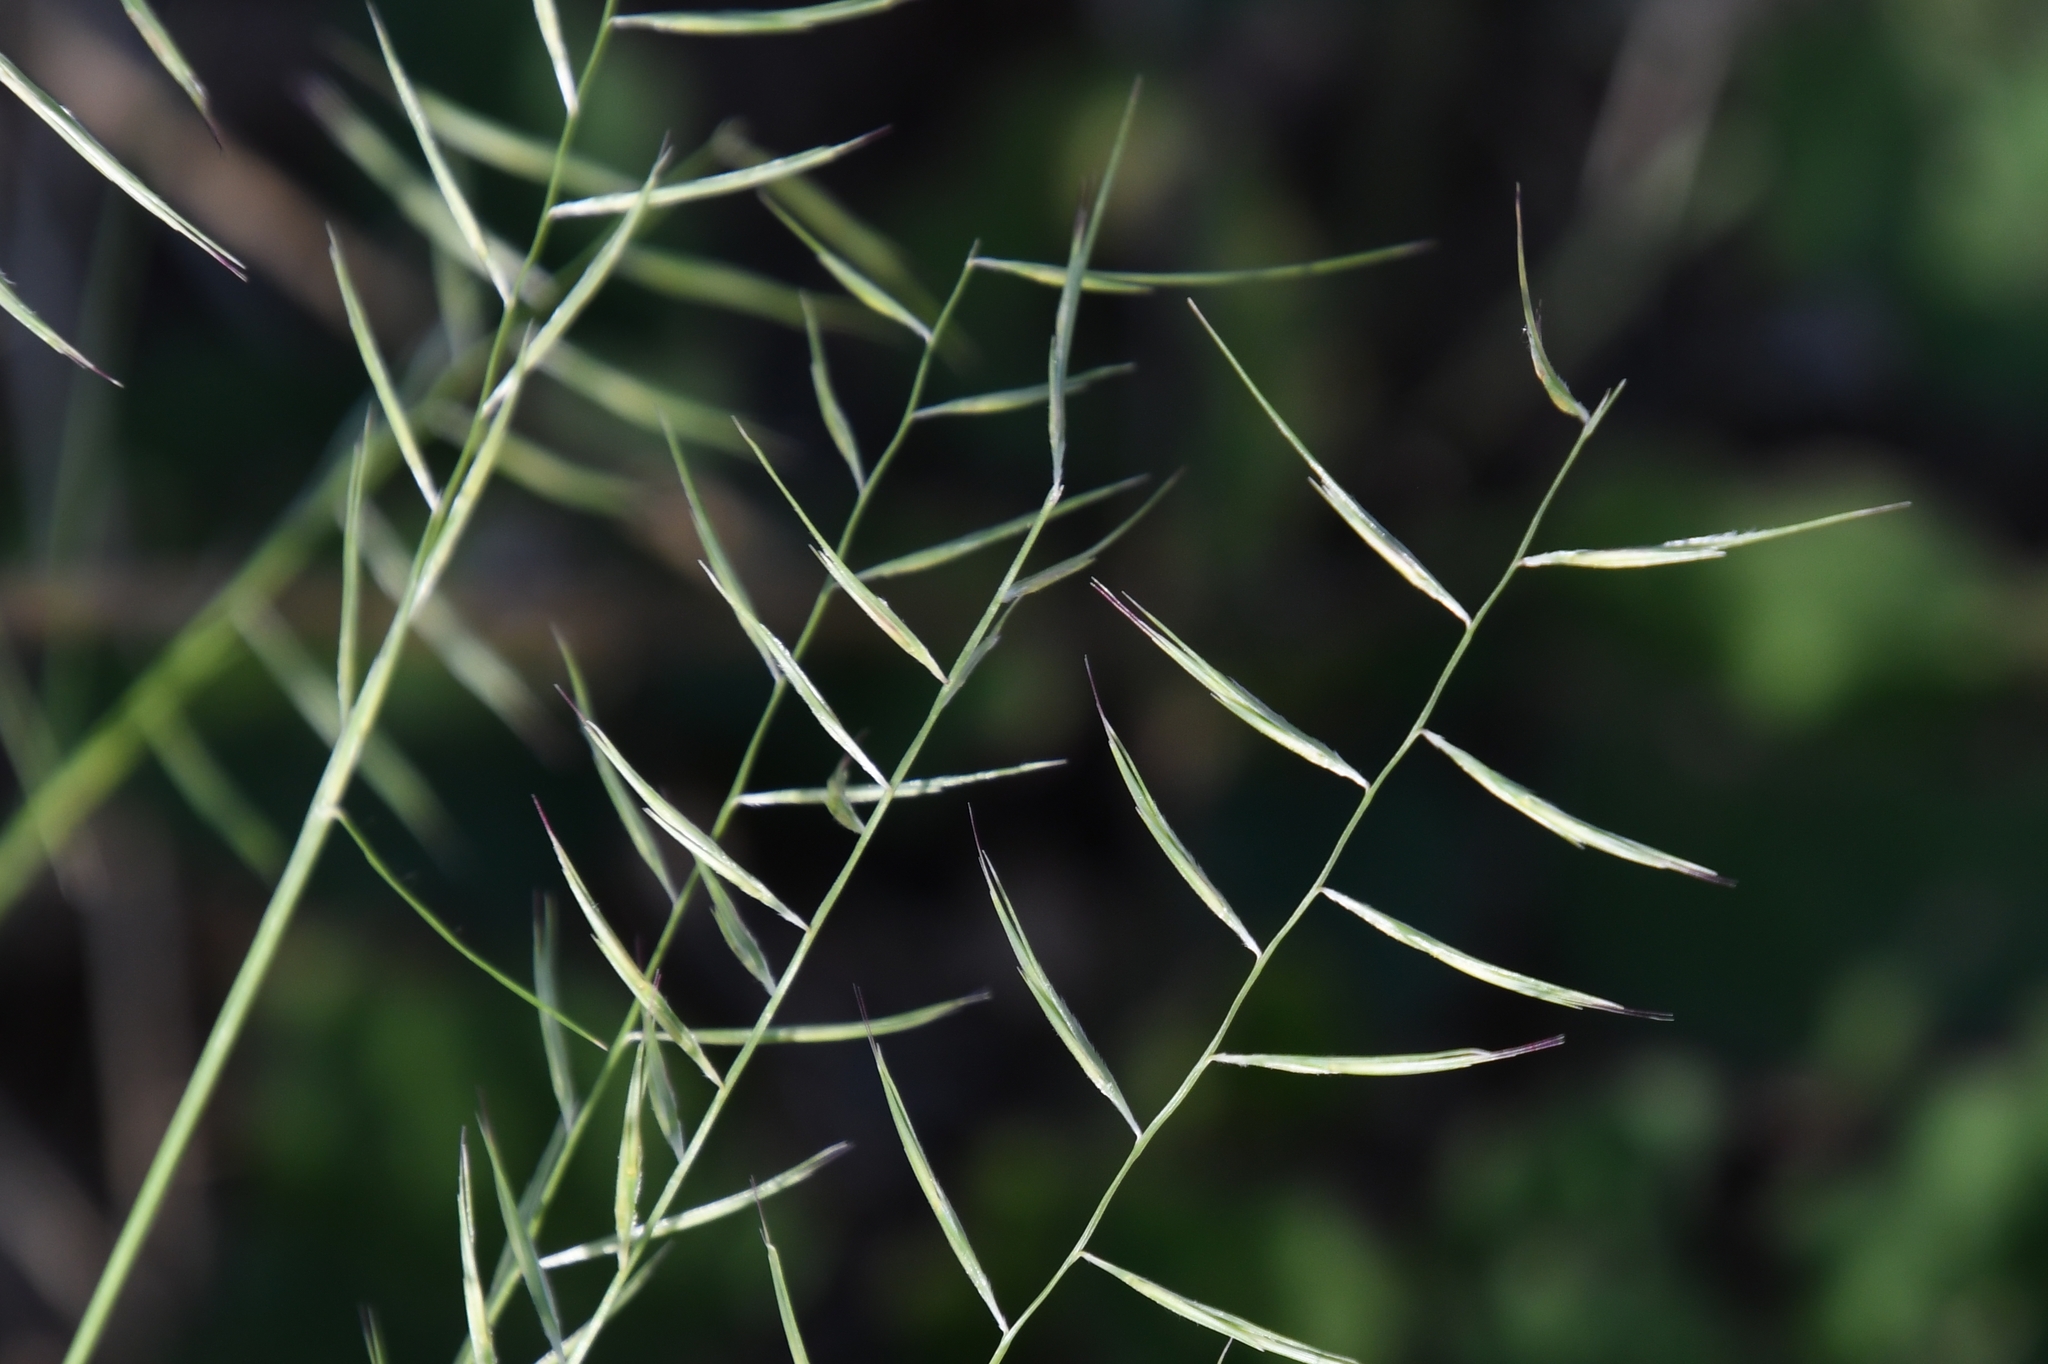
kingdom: Plantae
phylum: Tracheophyta
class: Liliopsida
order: Poales
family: Poaceae
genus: Bouteloua
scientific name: Bouteloua aristidoides
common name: Needle grama
